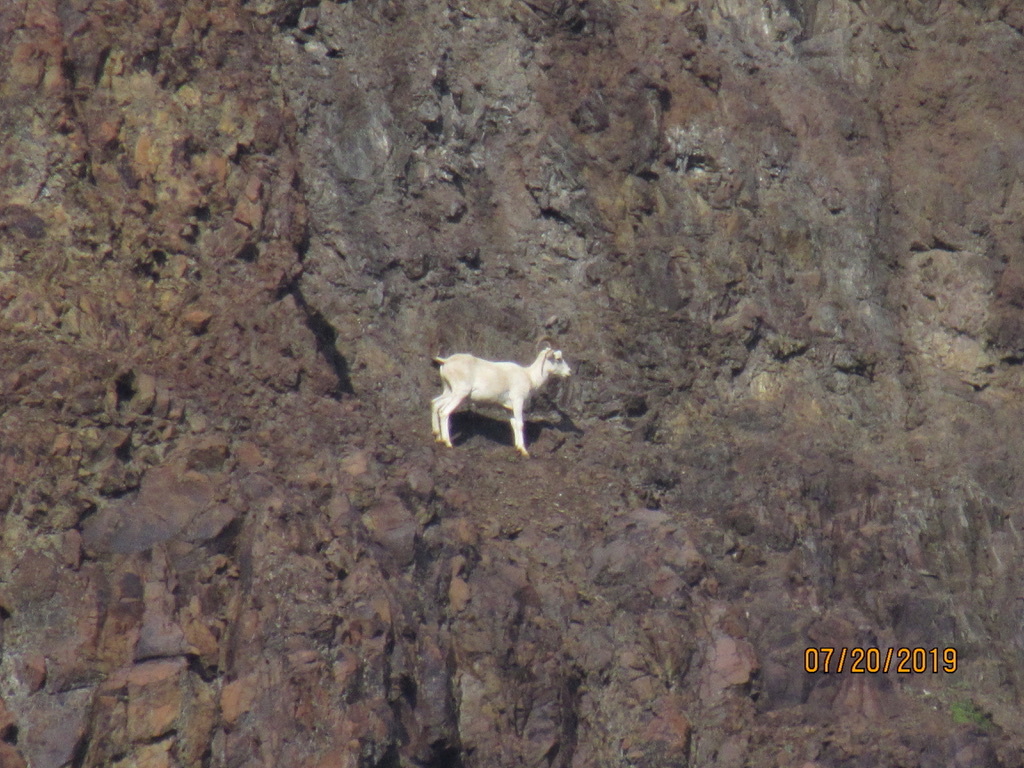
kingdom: Animalia
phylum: Chordata
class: Mammalia
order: Artiodactyla
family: Bovidae
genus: Ovis
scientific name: Ovis dalli
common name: Dall's sheep
